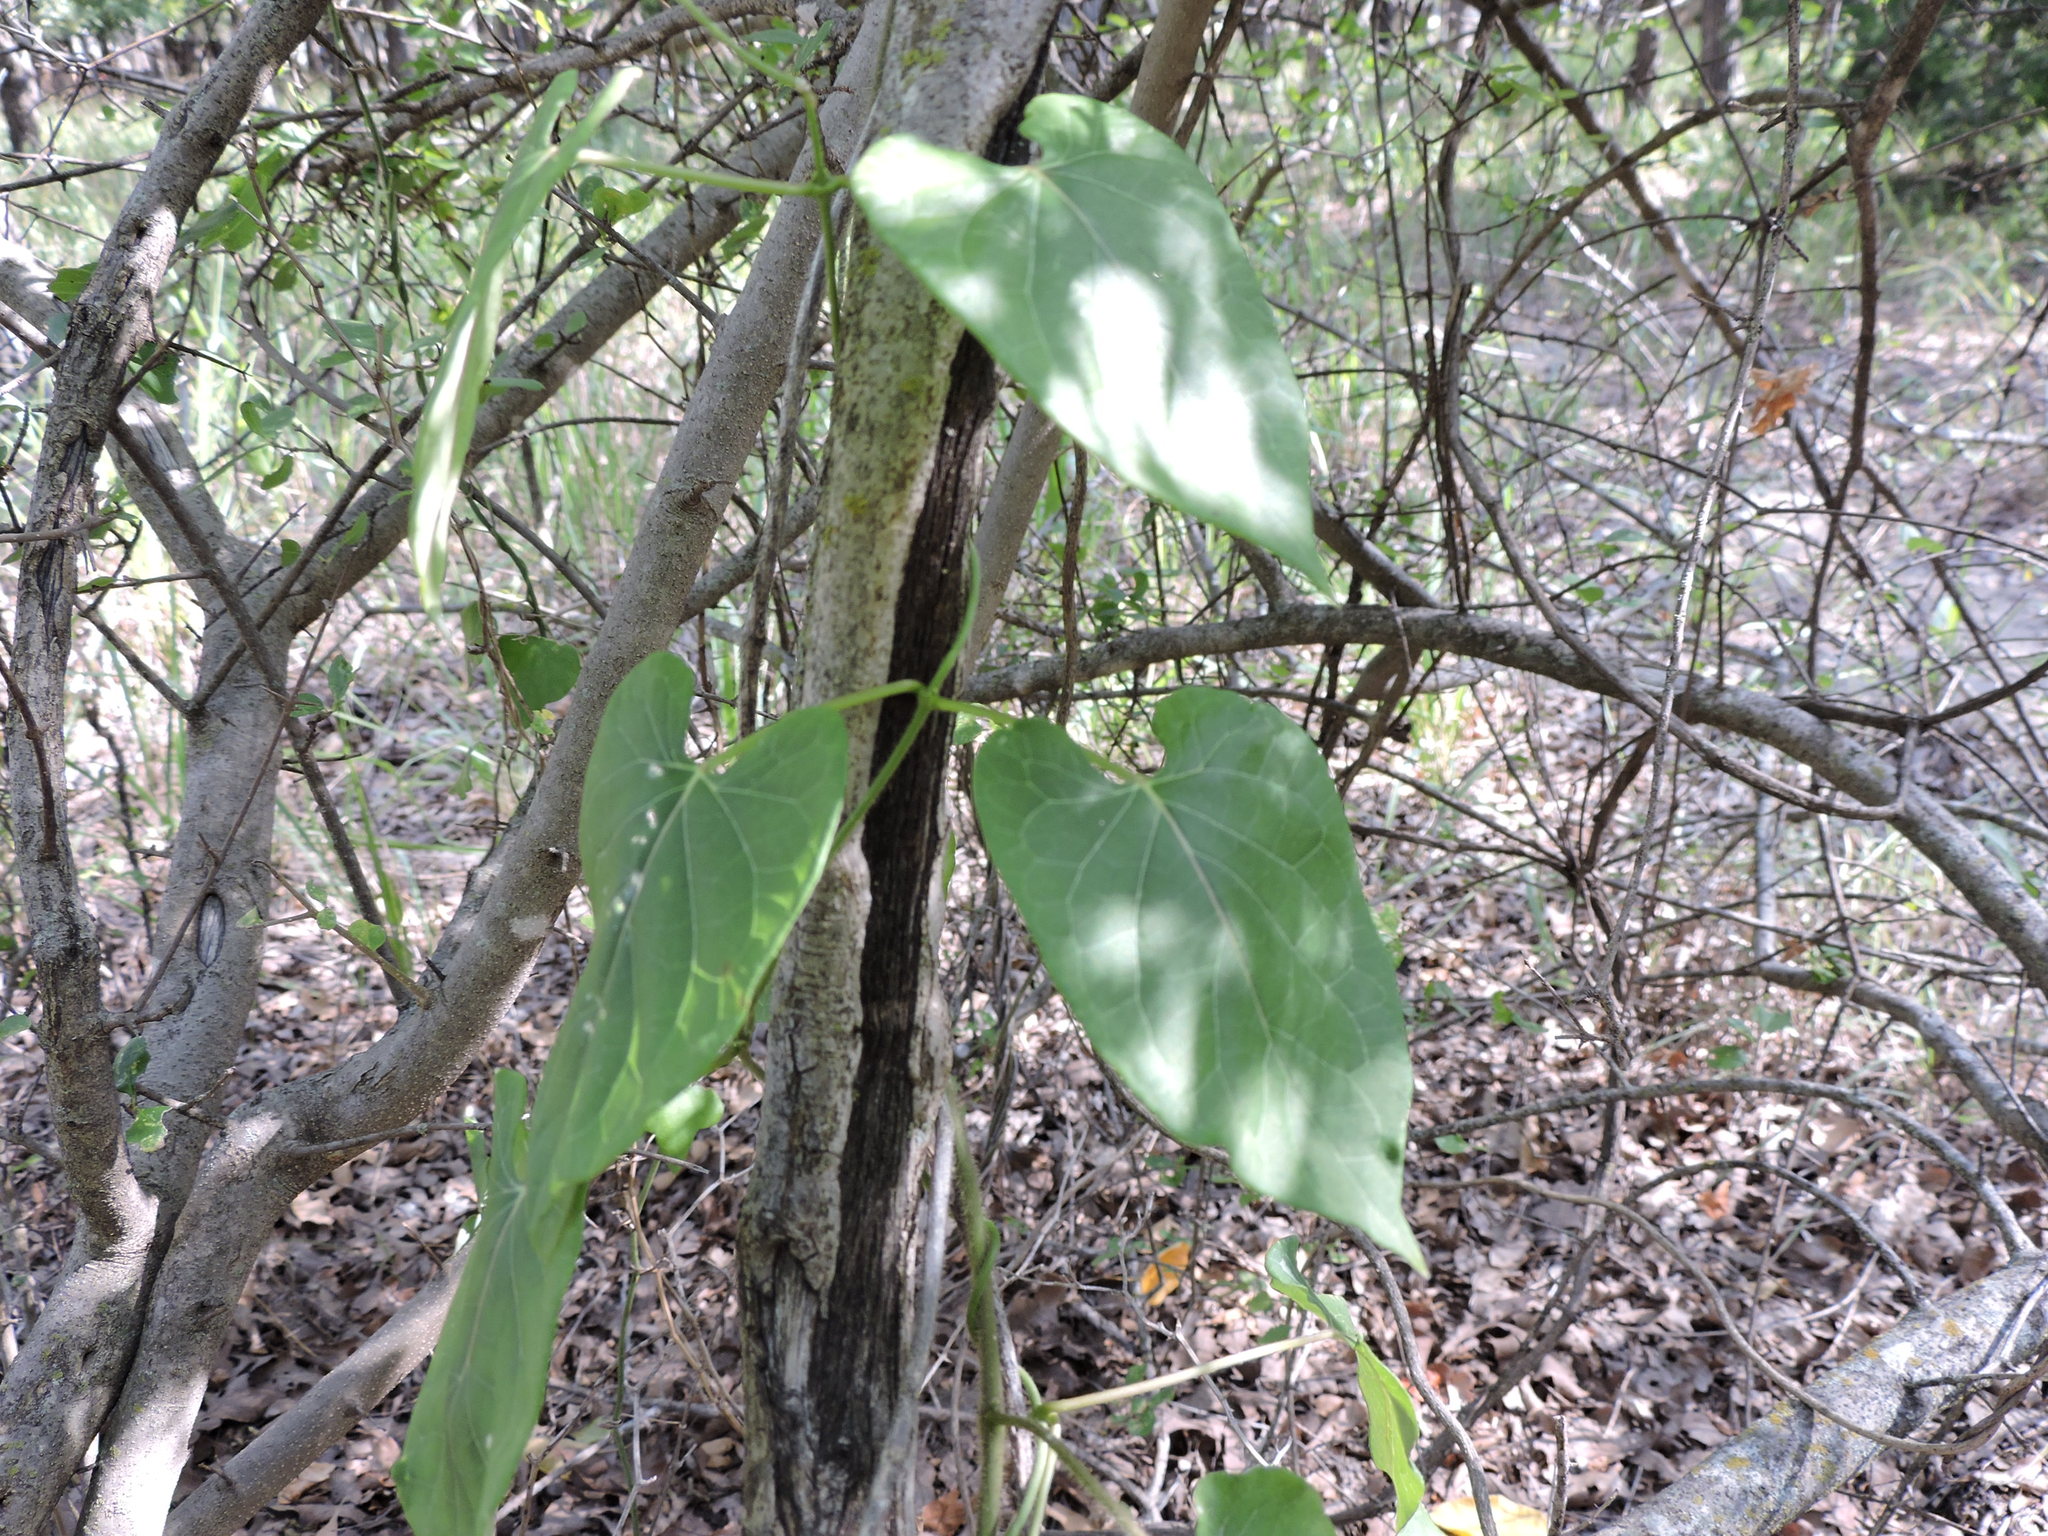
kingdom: Plantae
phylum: Tracheophyta
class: Magnoliopsida
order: Gentianales
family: Apocynaceae
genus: Gonolobus
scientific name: Gonolobus suberosus
